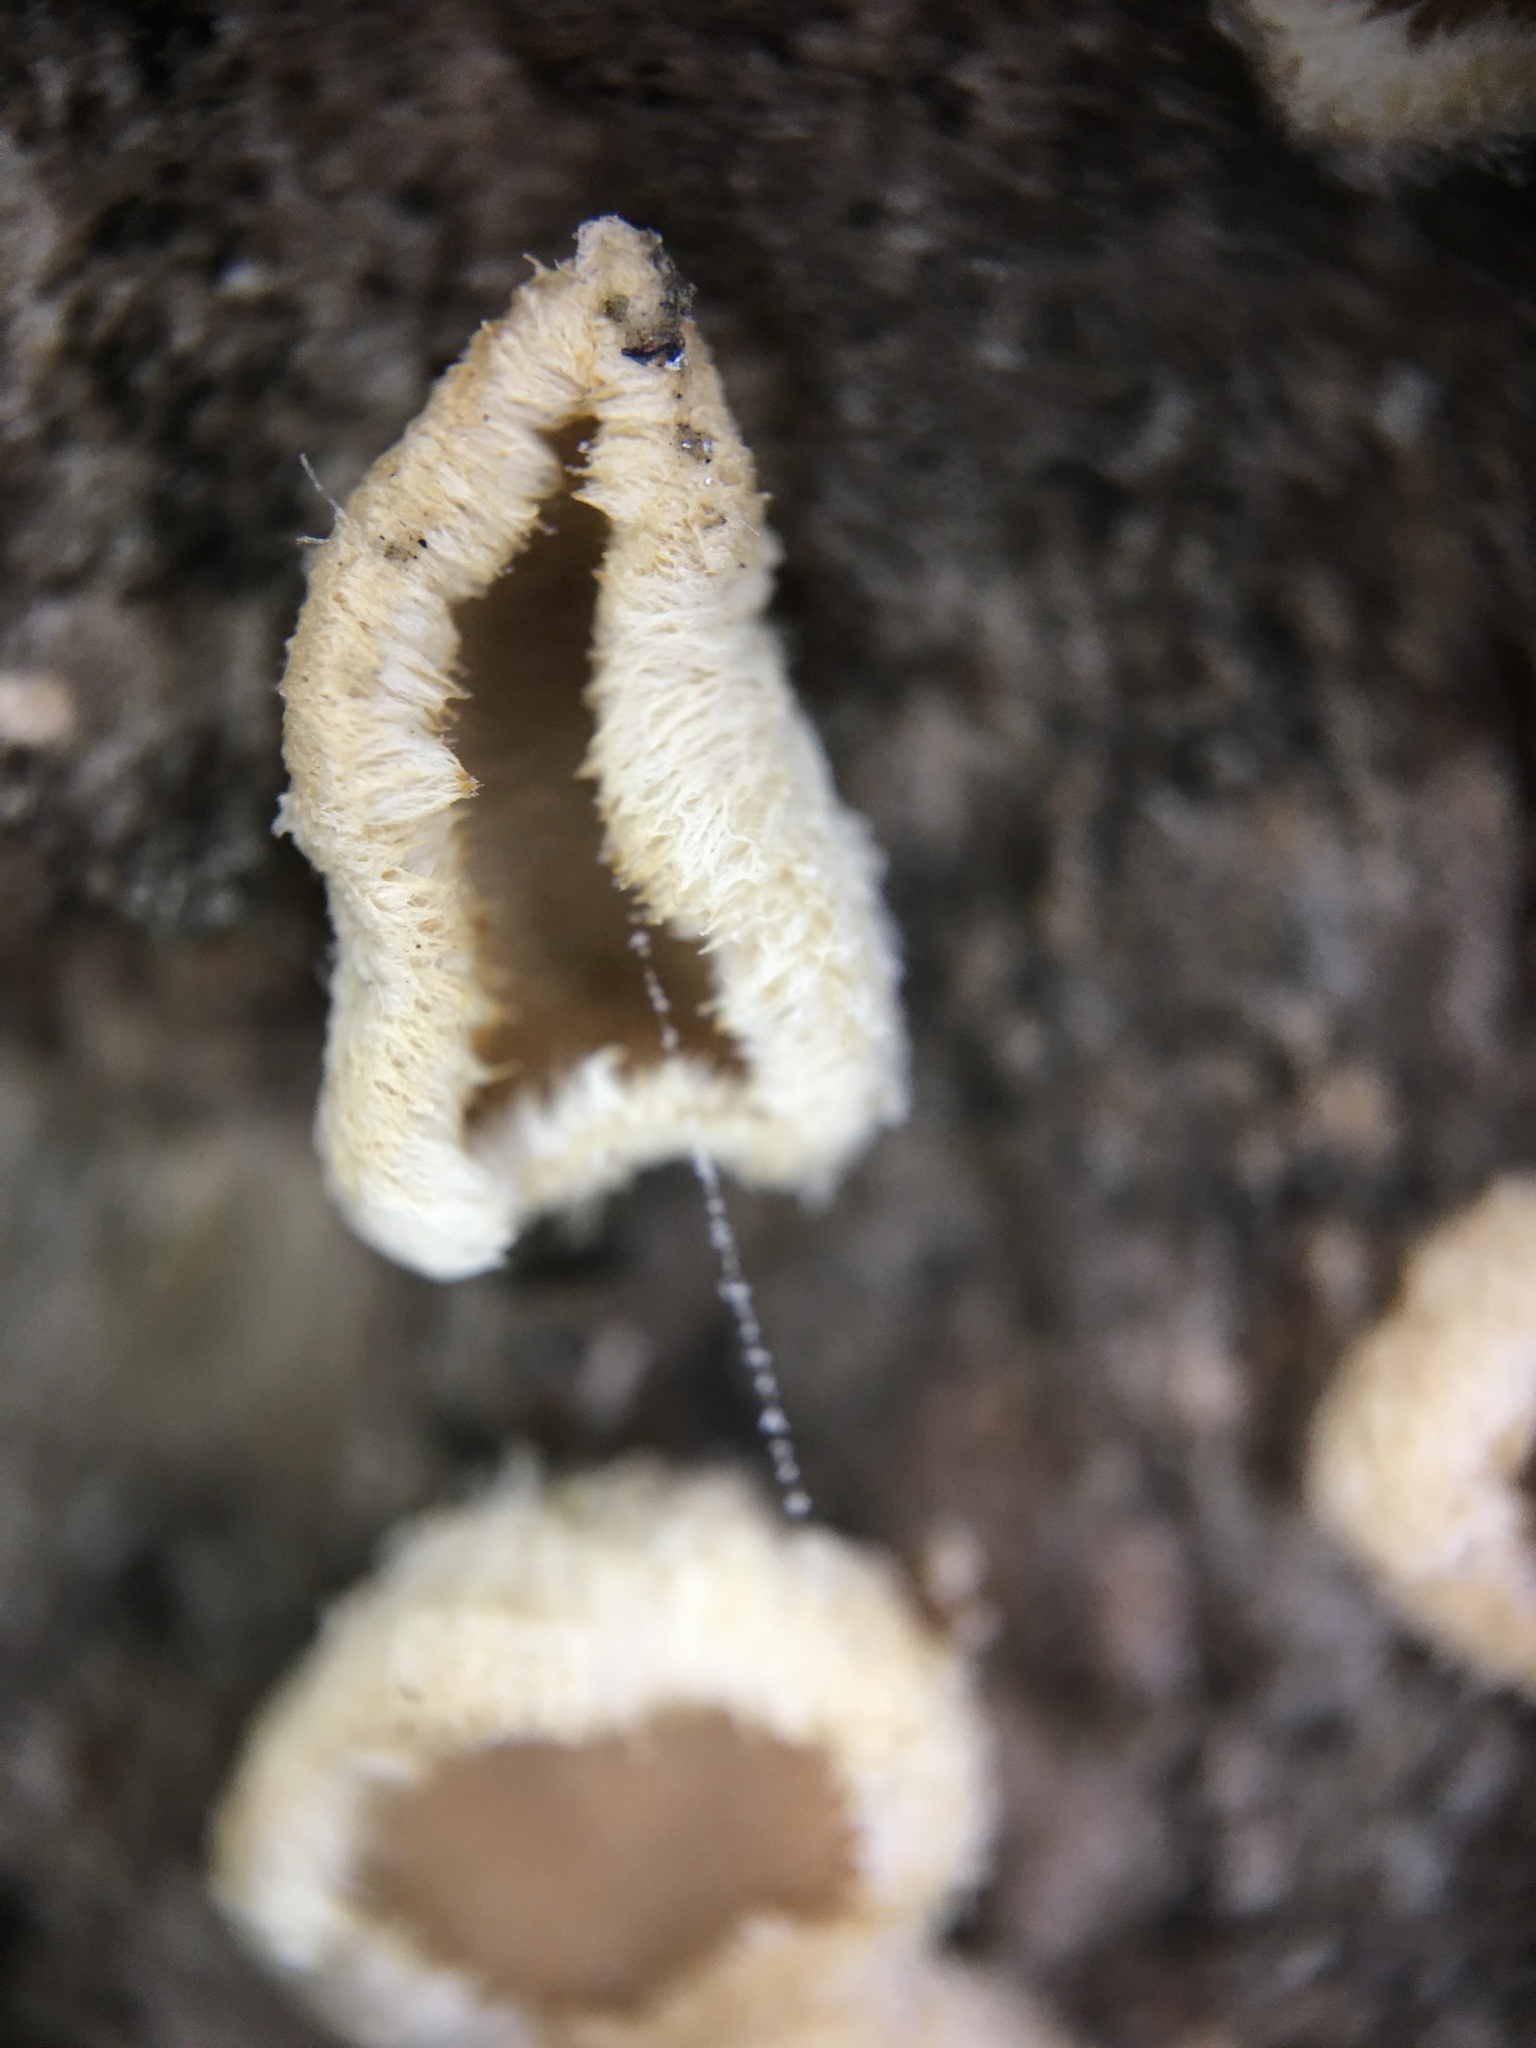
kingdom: Fungi
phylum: Basidiomycota
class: Agaricomycetes
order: Agaricales
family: Schizophyllaceae
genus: Schizophyllum
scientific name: Schizophyllum commune
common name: Common porecrust
